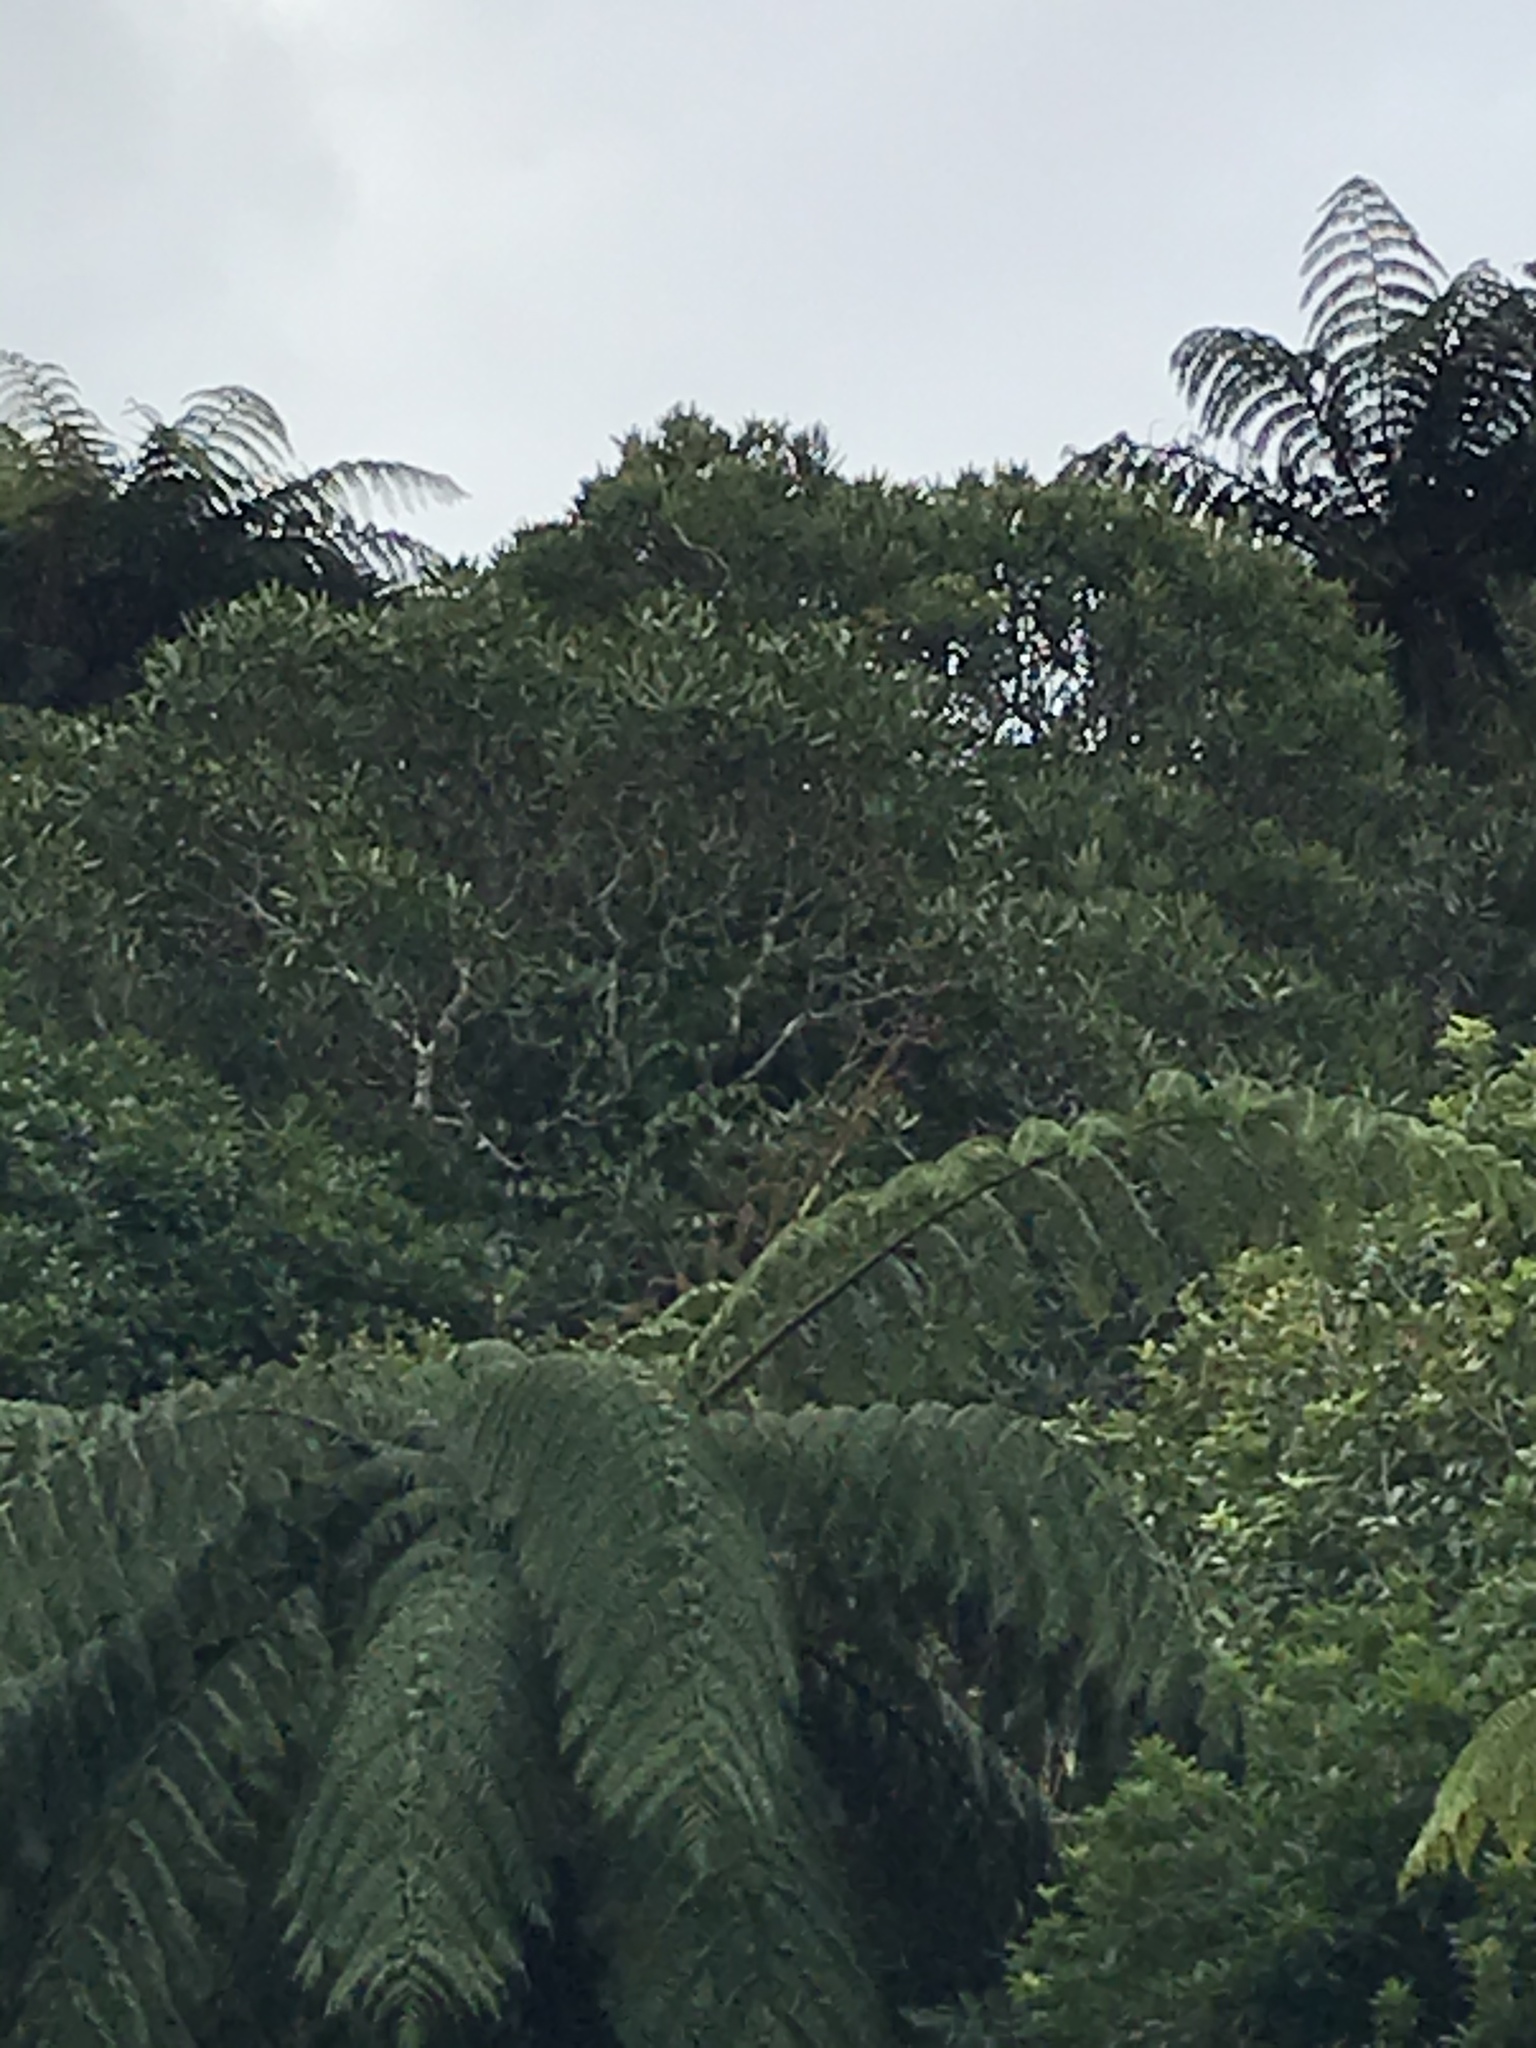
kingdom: Plantae
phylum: Tracheophyta
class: Magnoliopsida
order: Apiales
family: Araliaceae
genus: Pseudopanax
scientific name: Pseudopanax crassifolius
